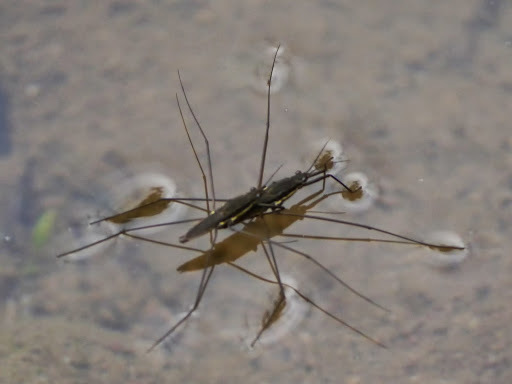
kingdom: Animalia
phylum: Arthropoda
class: Insecta
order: Hemiptera
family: Gerridae
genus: Aquarius
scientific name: Aquarius conformis
